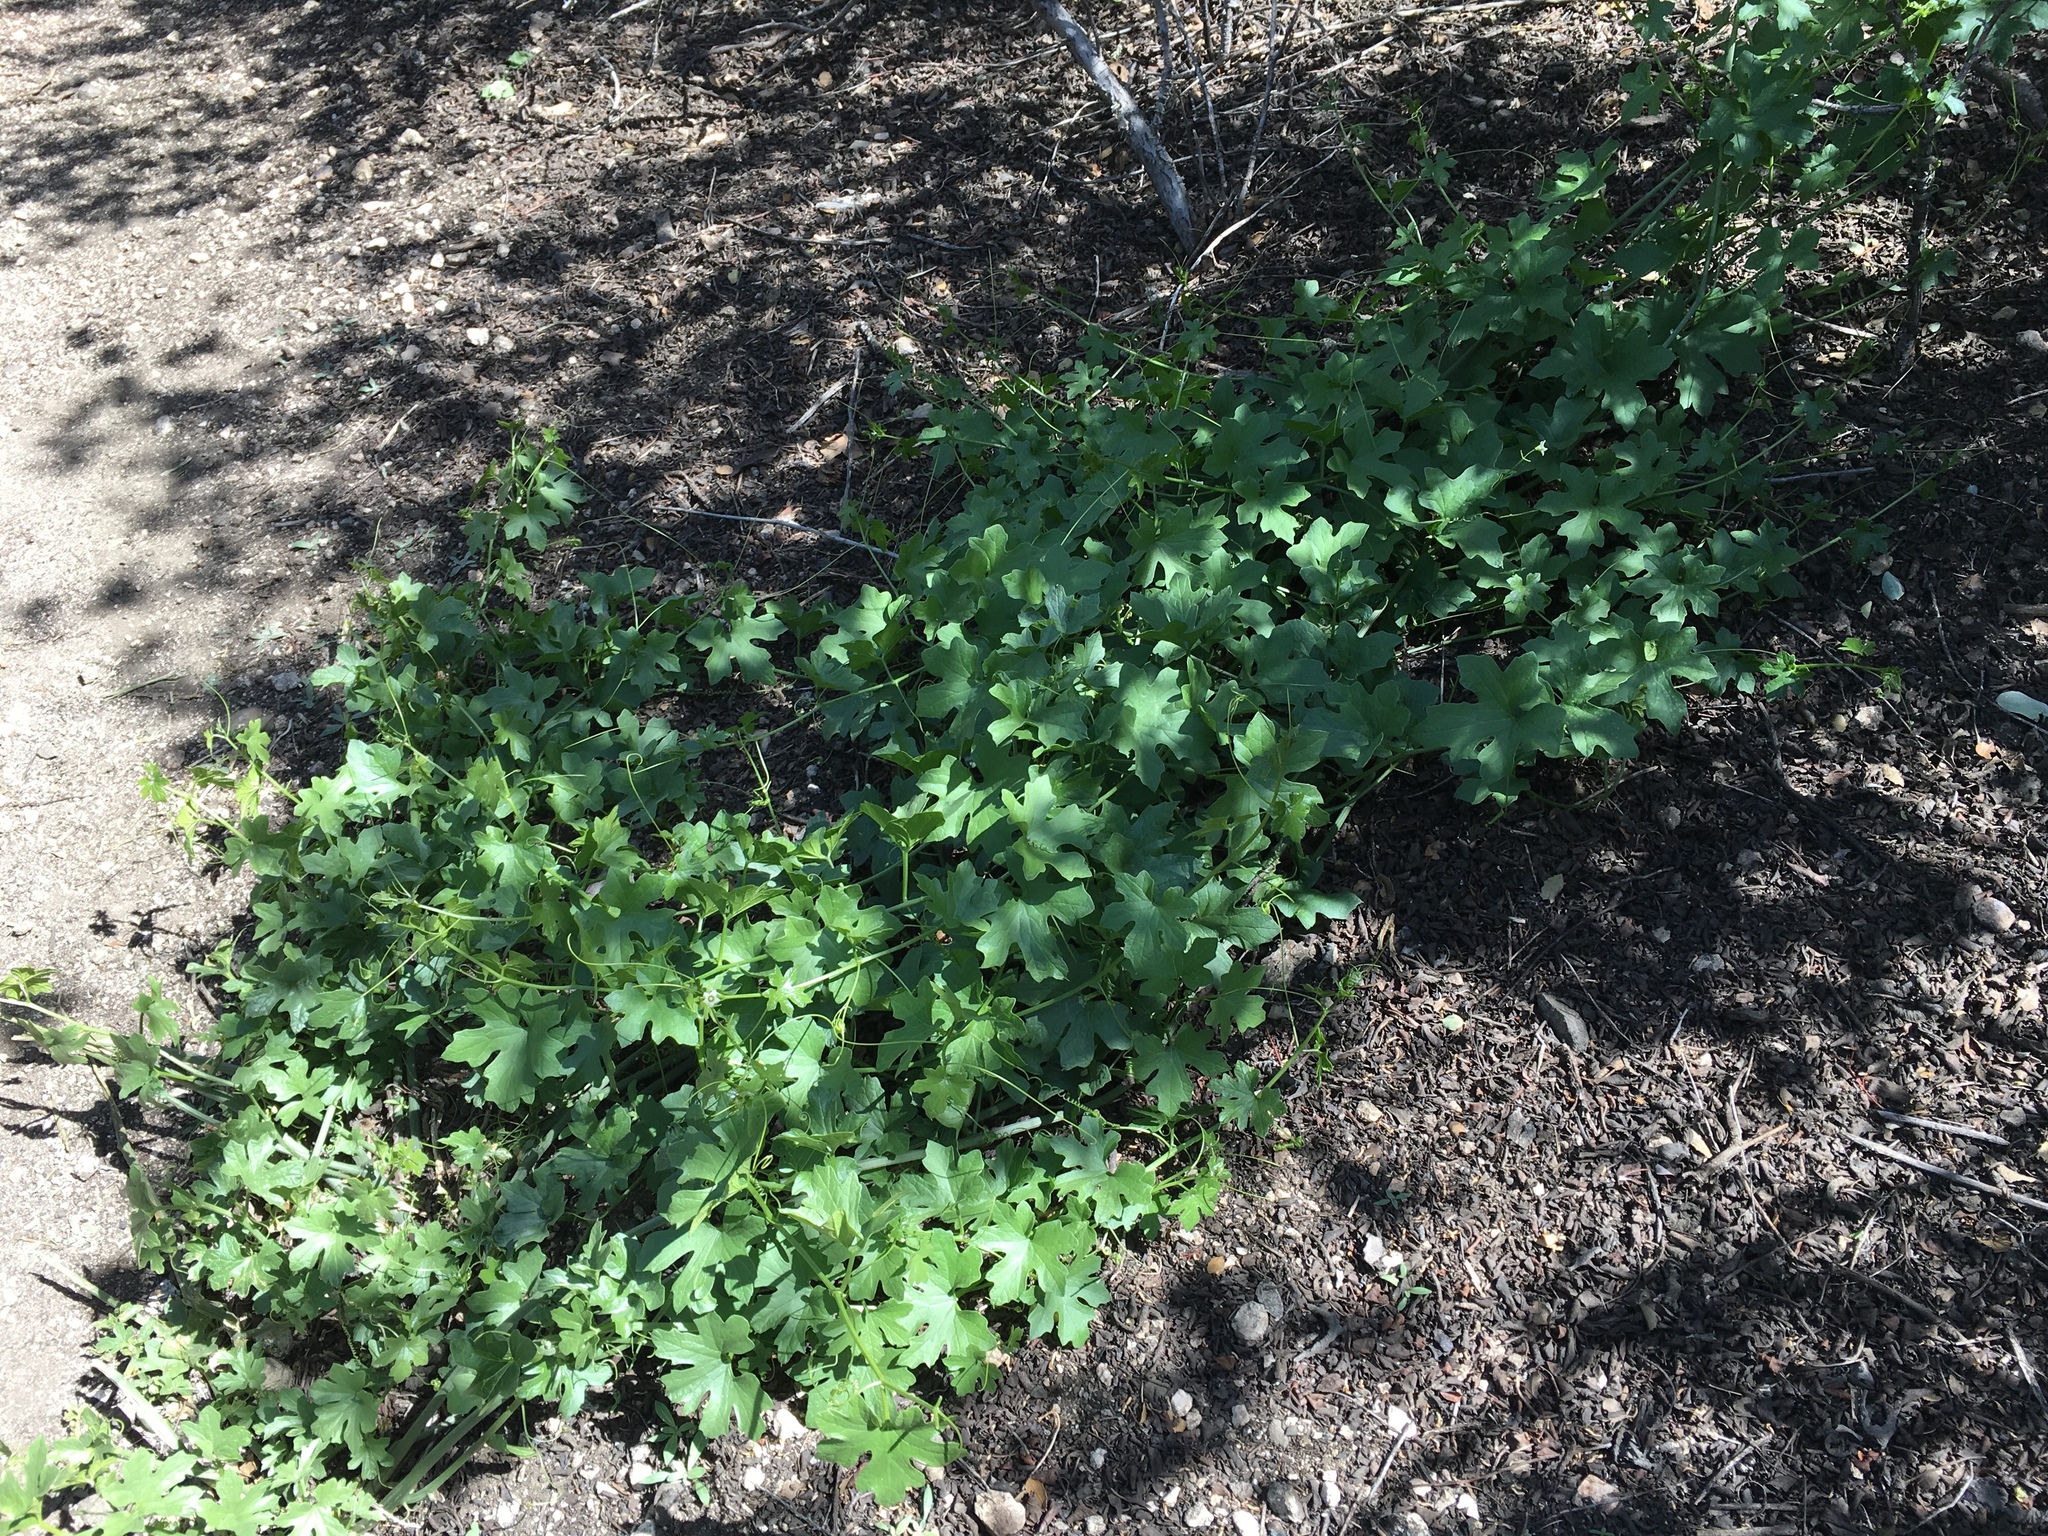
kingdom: Plantae
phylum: Tracheophyta
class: Magnoliopsida
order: Cucurbitales
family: Cucurbitaceae
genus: Marah
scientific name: Marah fabacea
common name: California manroot
